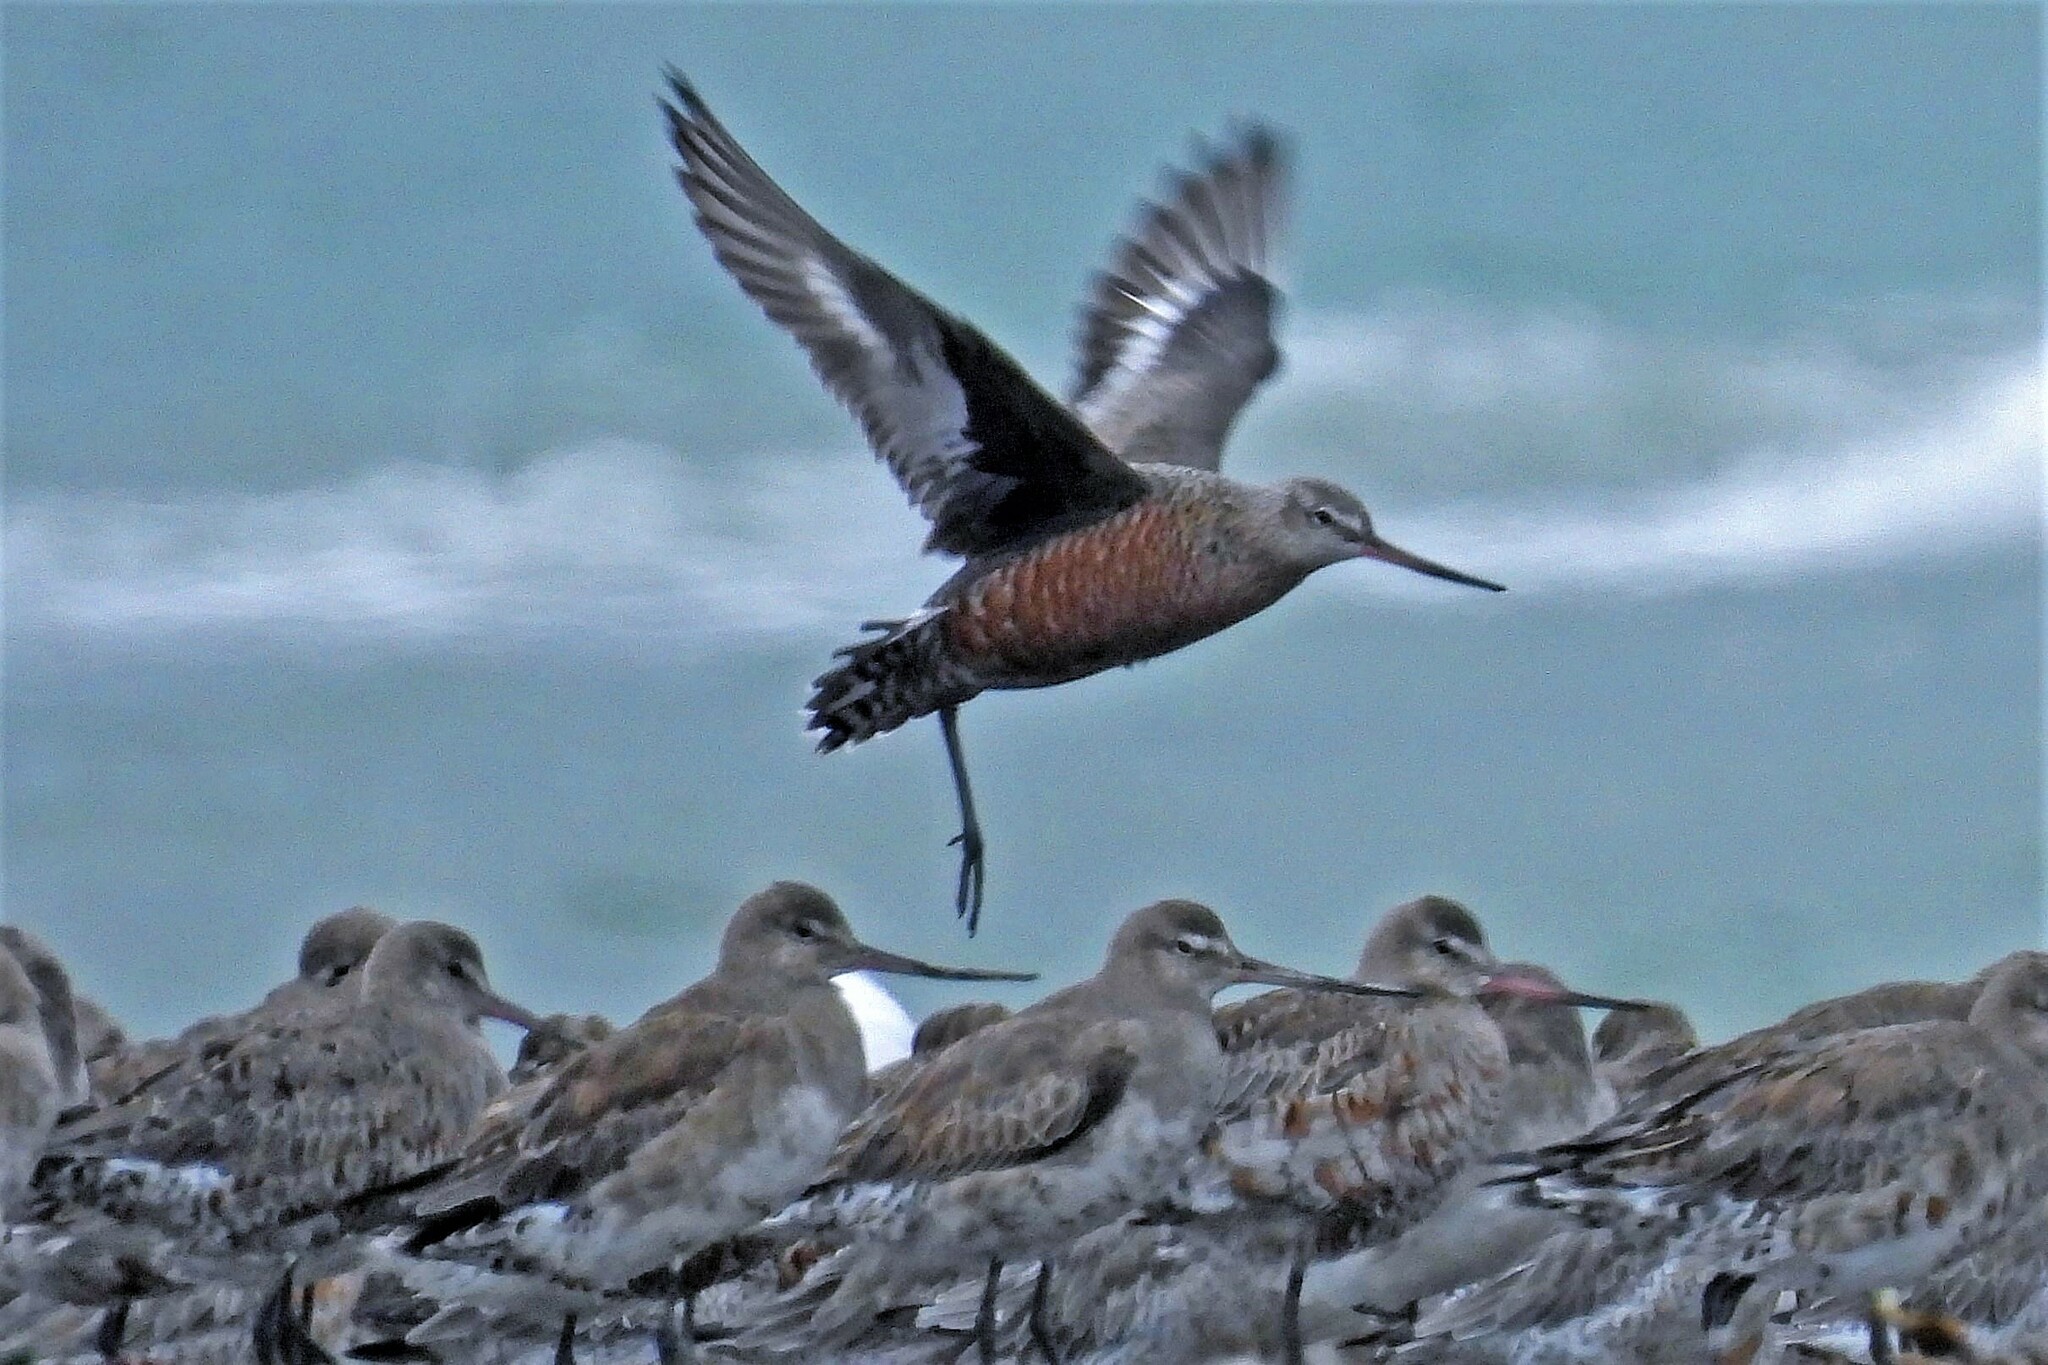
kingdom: Animalia
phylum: Chordata
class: Aves
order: Charadriiformes
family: Scolopacidae
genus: Limosa
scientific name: Limosa haemastica
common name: Hudsonian godwit
